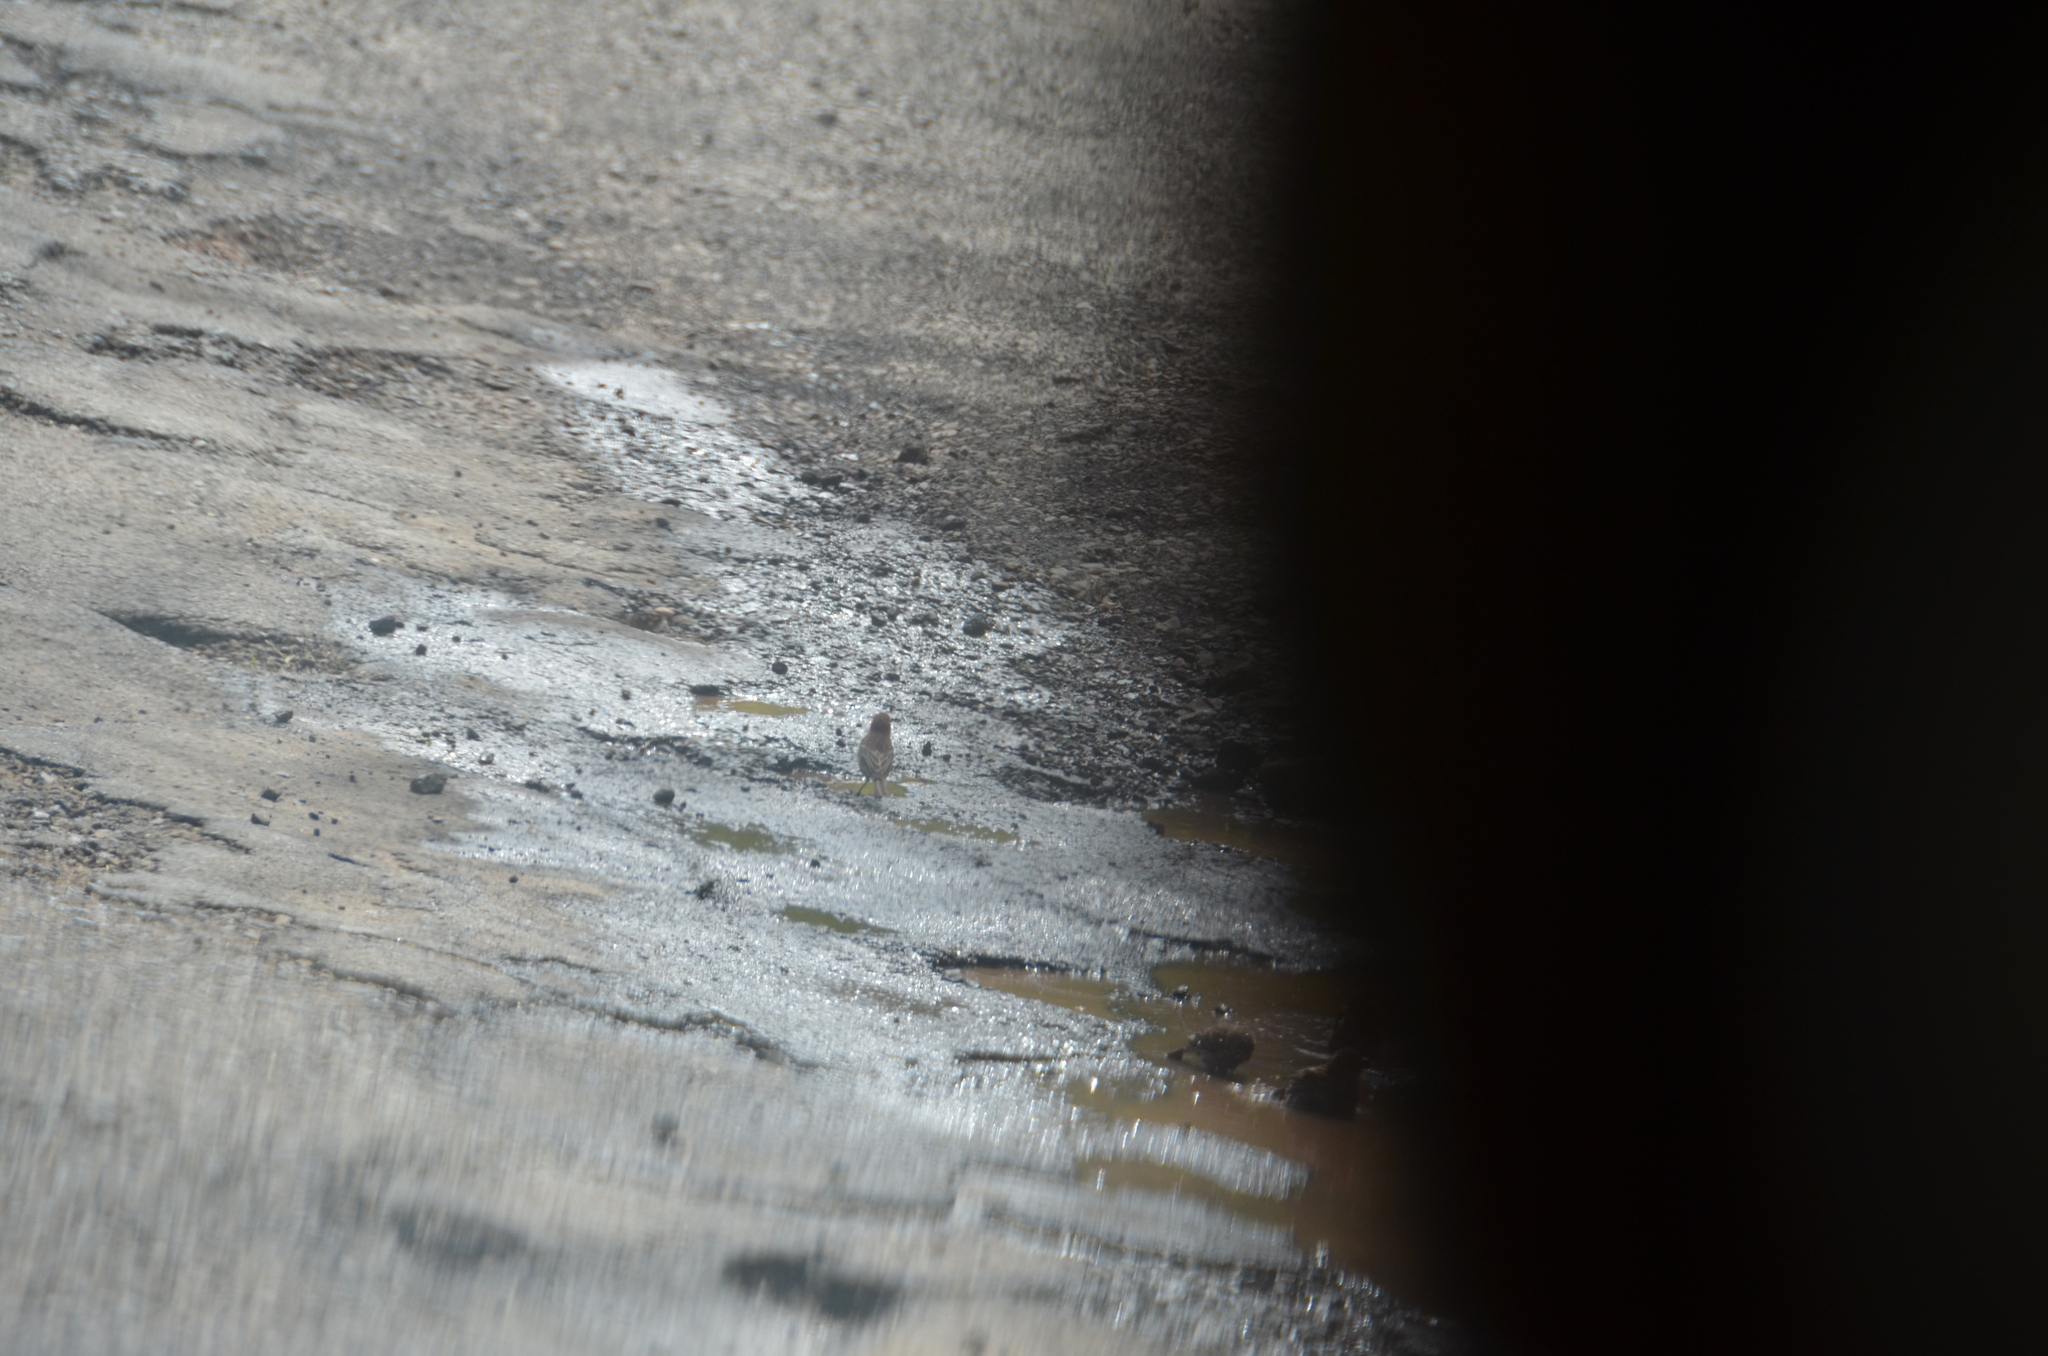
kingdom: Animalia
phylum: Chordata
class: Aves
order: Passeriformes
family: Fringillidae
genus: Haemorhous
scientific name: Haemorhous mexicanus
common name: House finch
